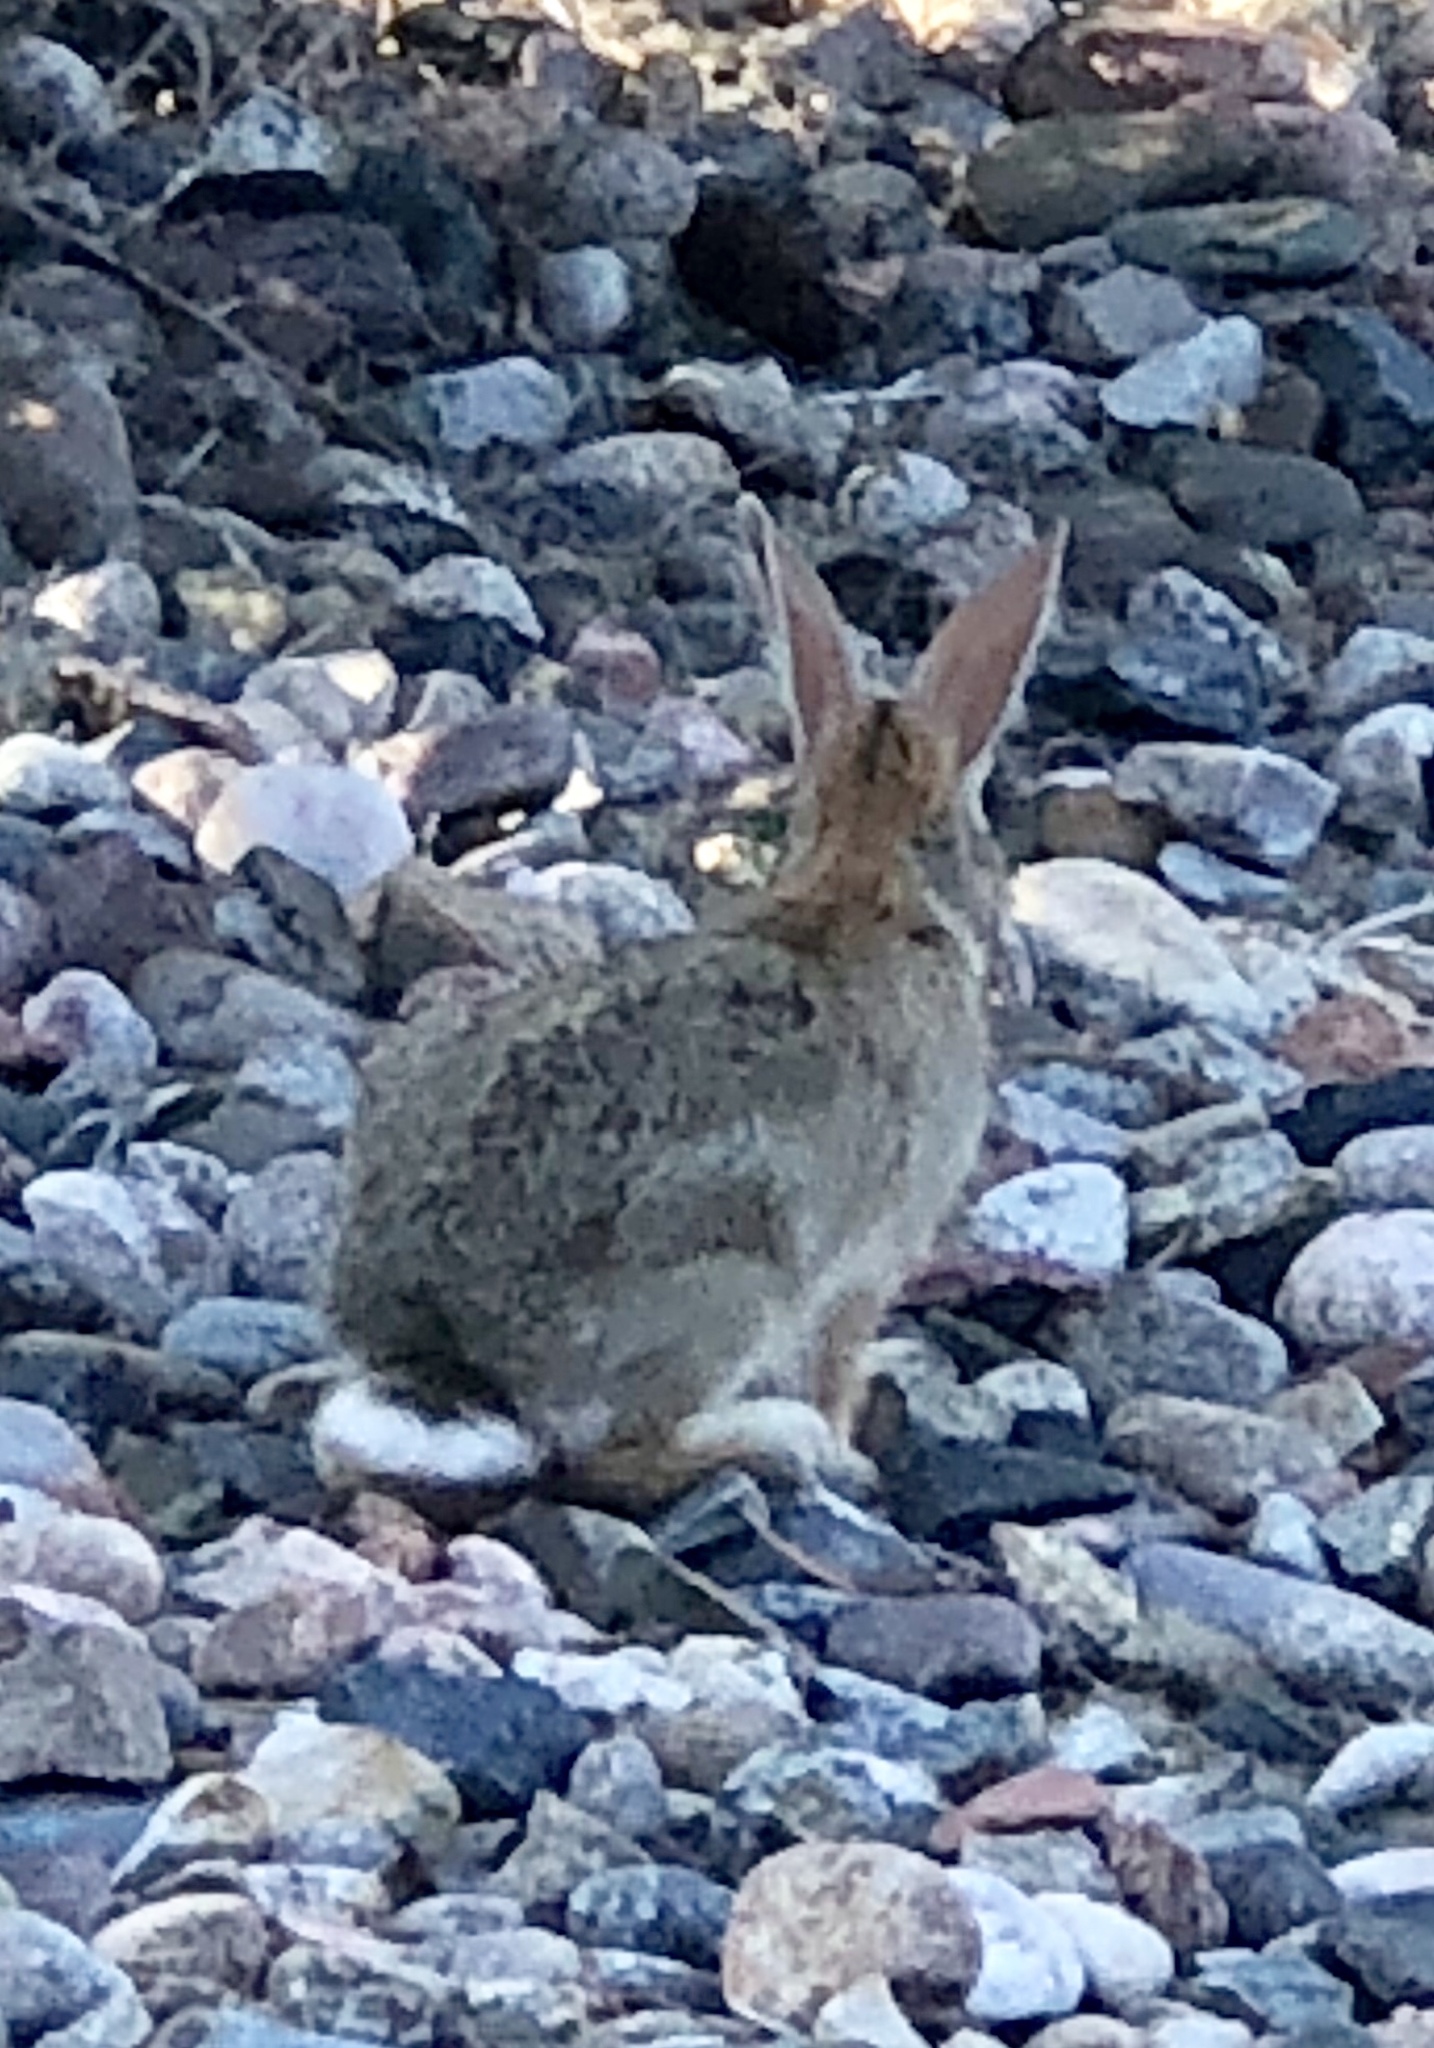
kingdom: Animalia
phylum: Chordata
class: Mammalia
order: Lagomorpha
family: Leporidae
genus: Sylvilagus
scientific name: Sylvilagus audubonii
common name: Desert cottontail
